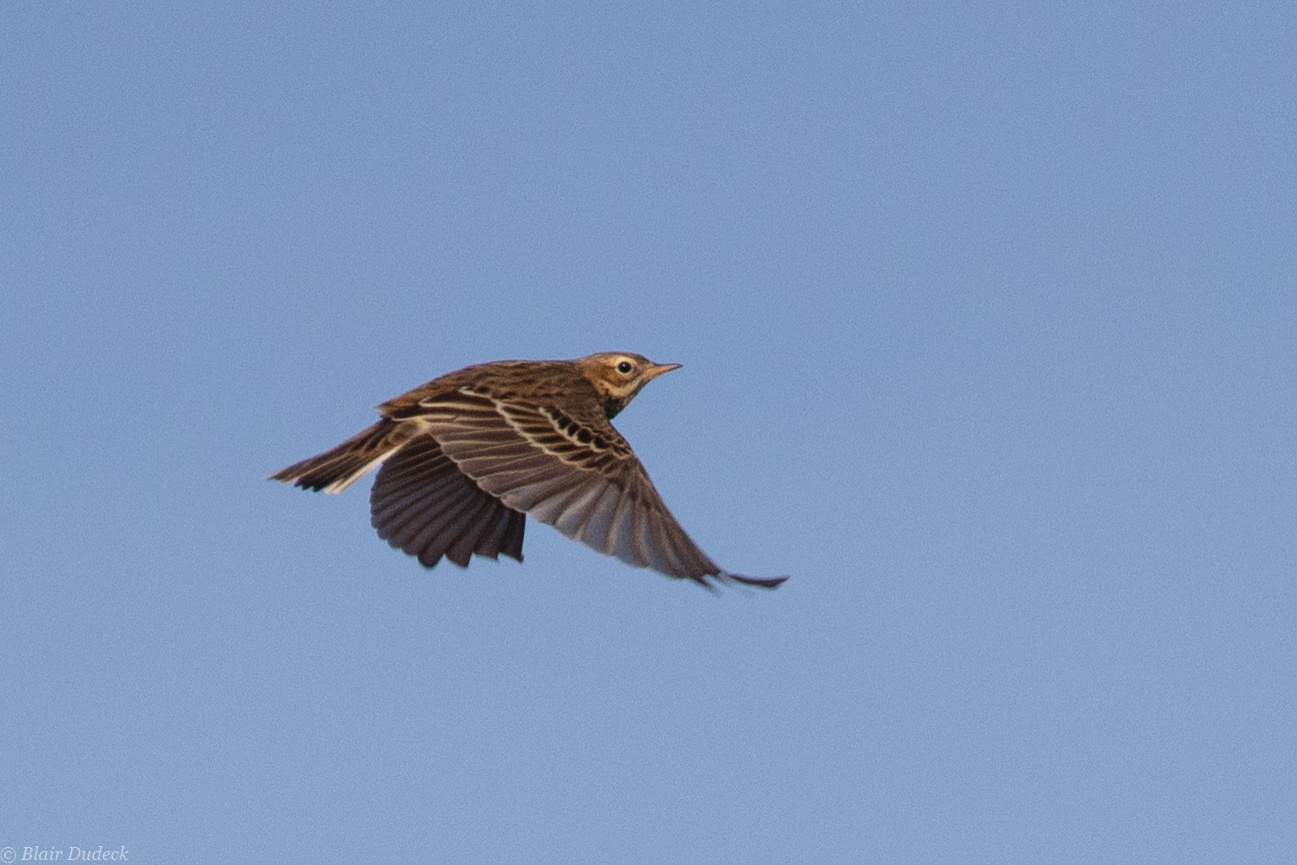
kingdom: Animalia
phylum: Chordata
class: Aves
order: Passeriformes
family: Motacillidae
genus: Anthus
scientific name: Anthus cervinus
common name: Red-throated pipit
